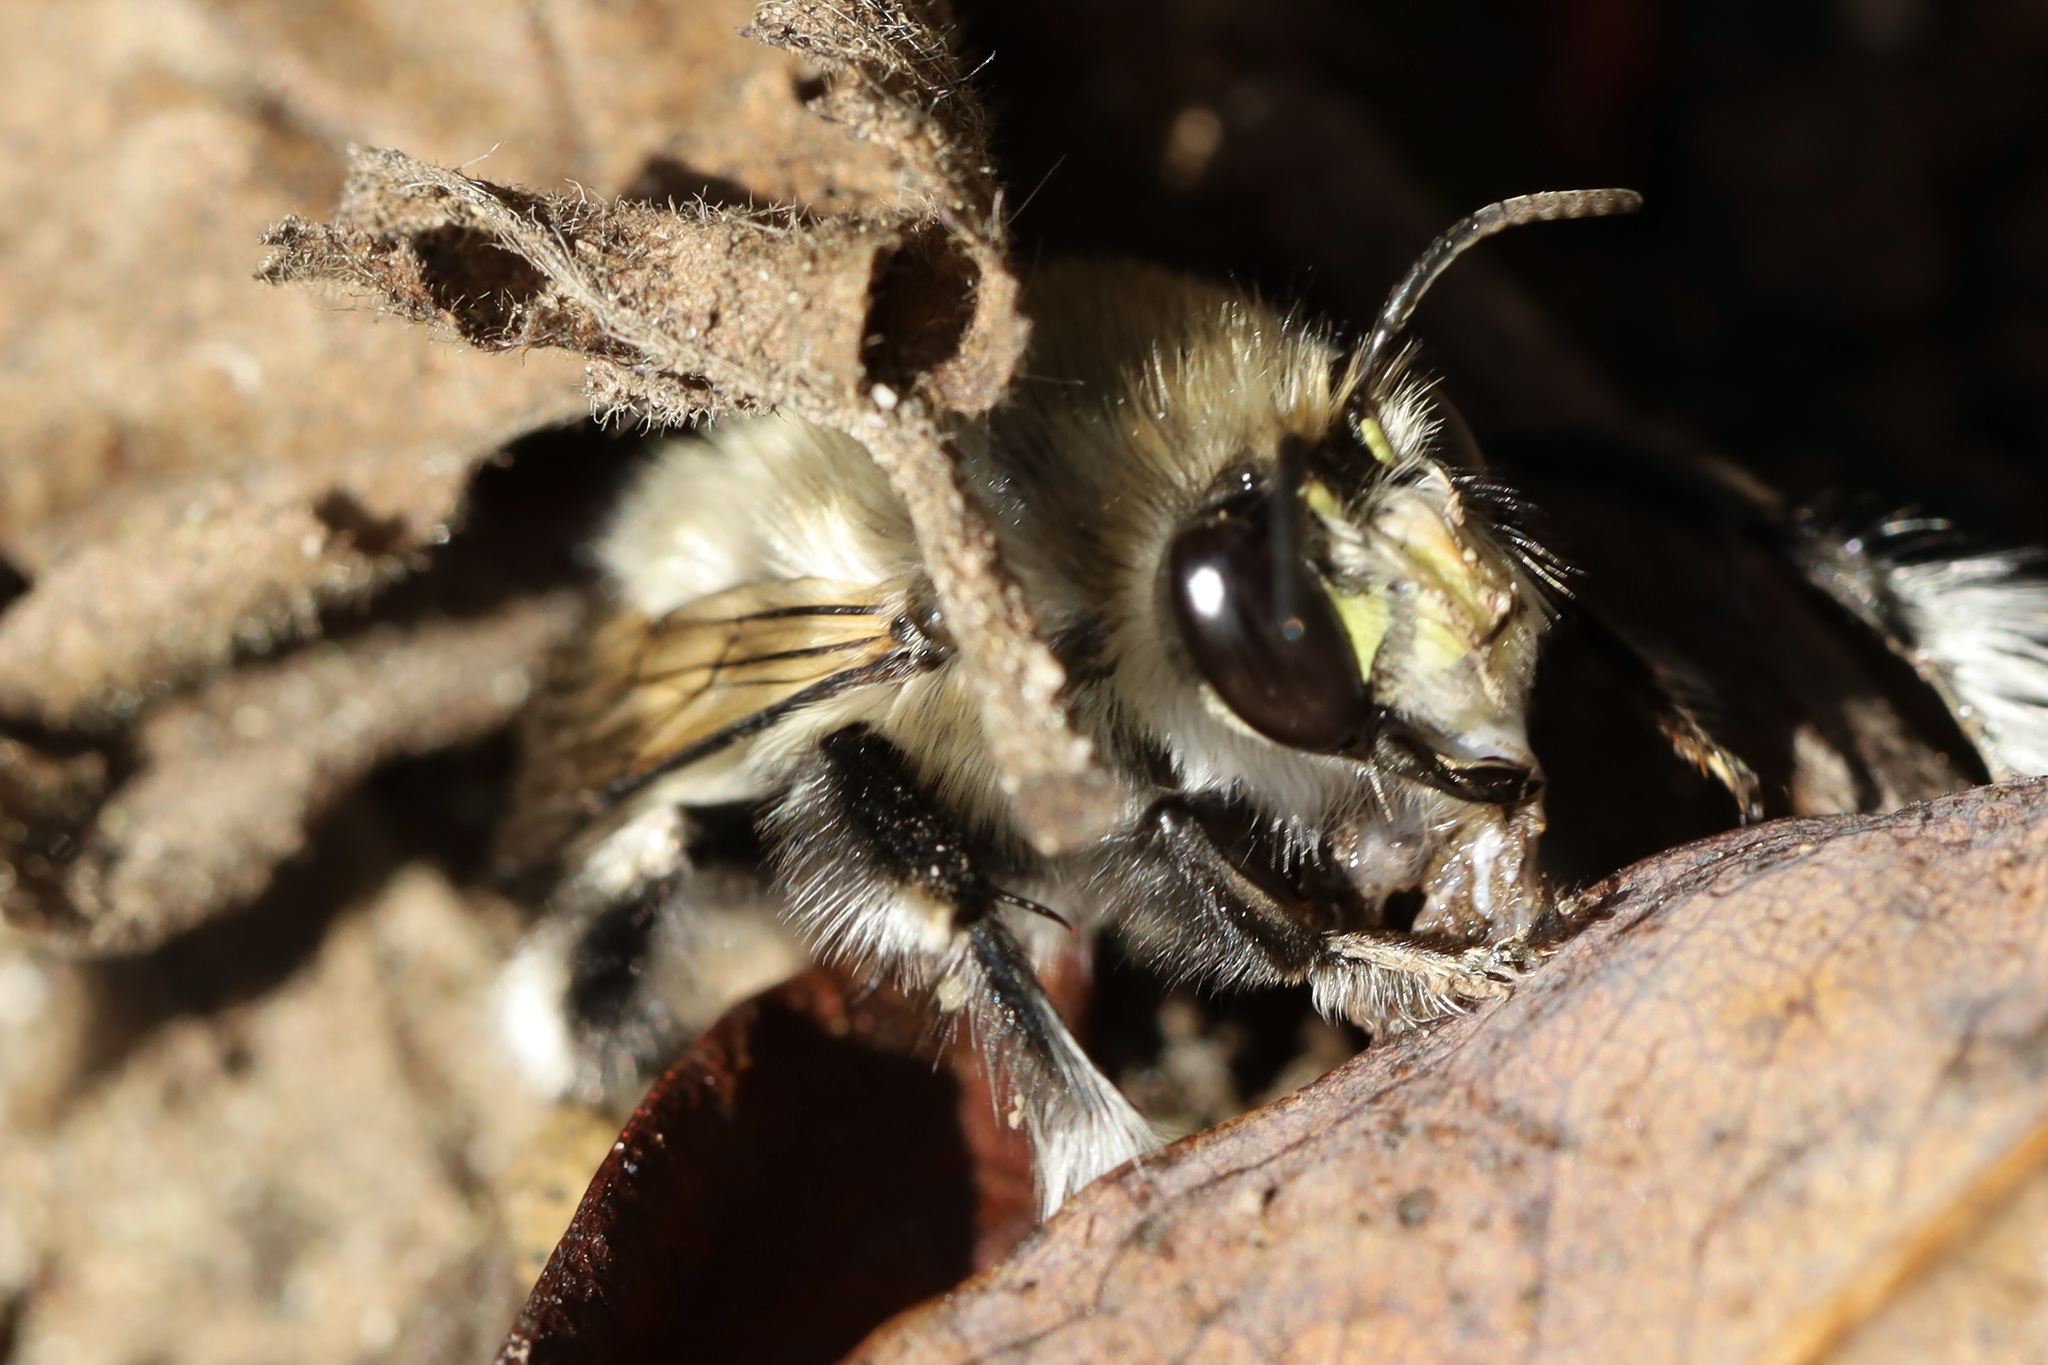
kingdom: Animalia
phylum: Arthropoda
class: Insecta
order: Hymenoptera
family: Apidae
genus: Anthophora
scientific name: Anthophora pacifica
